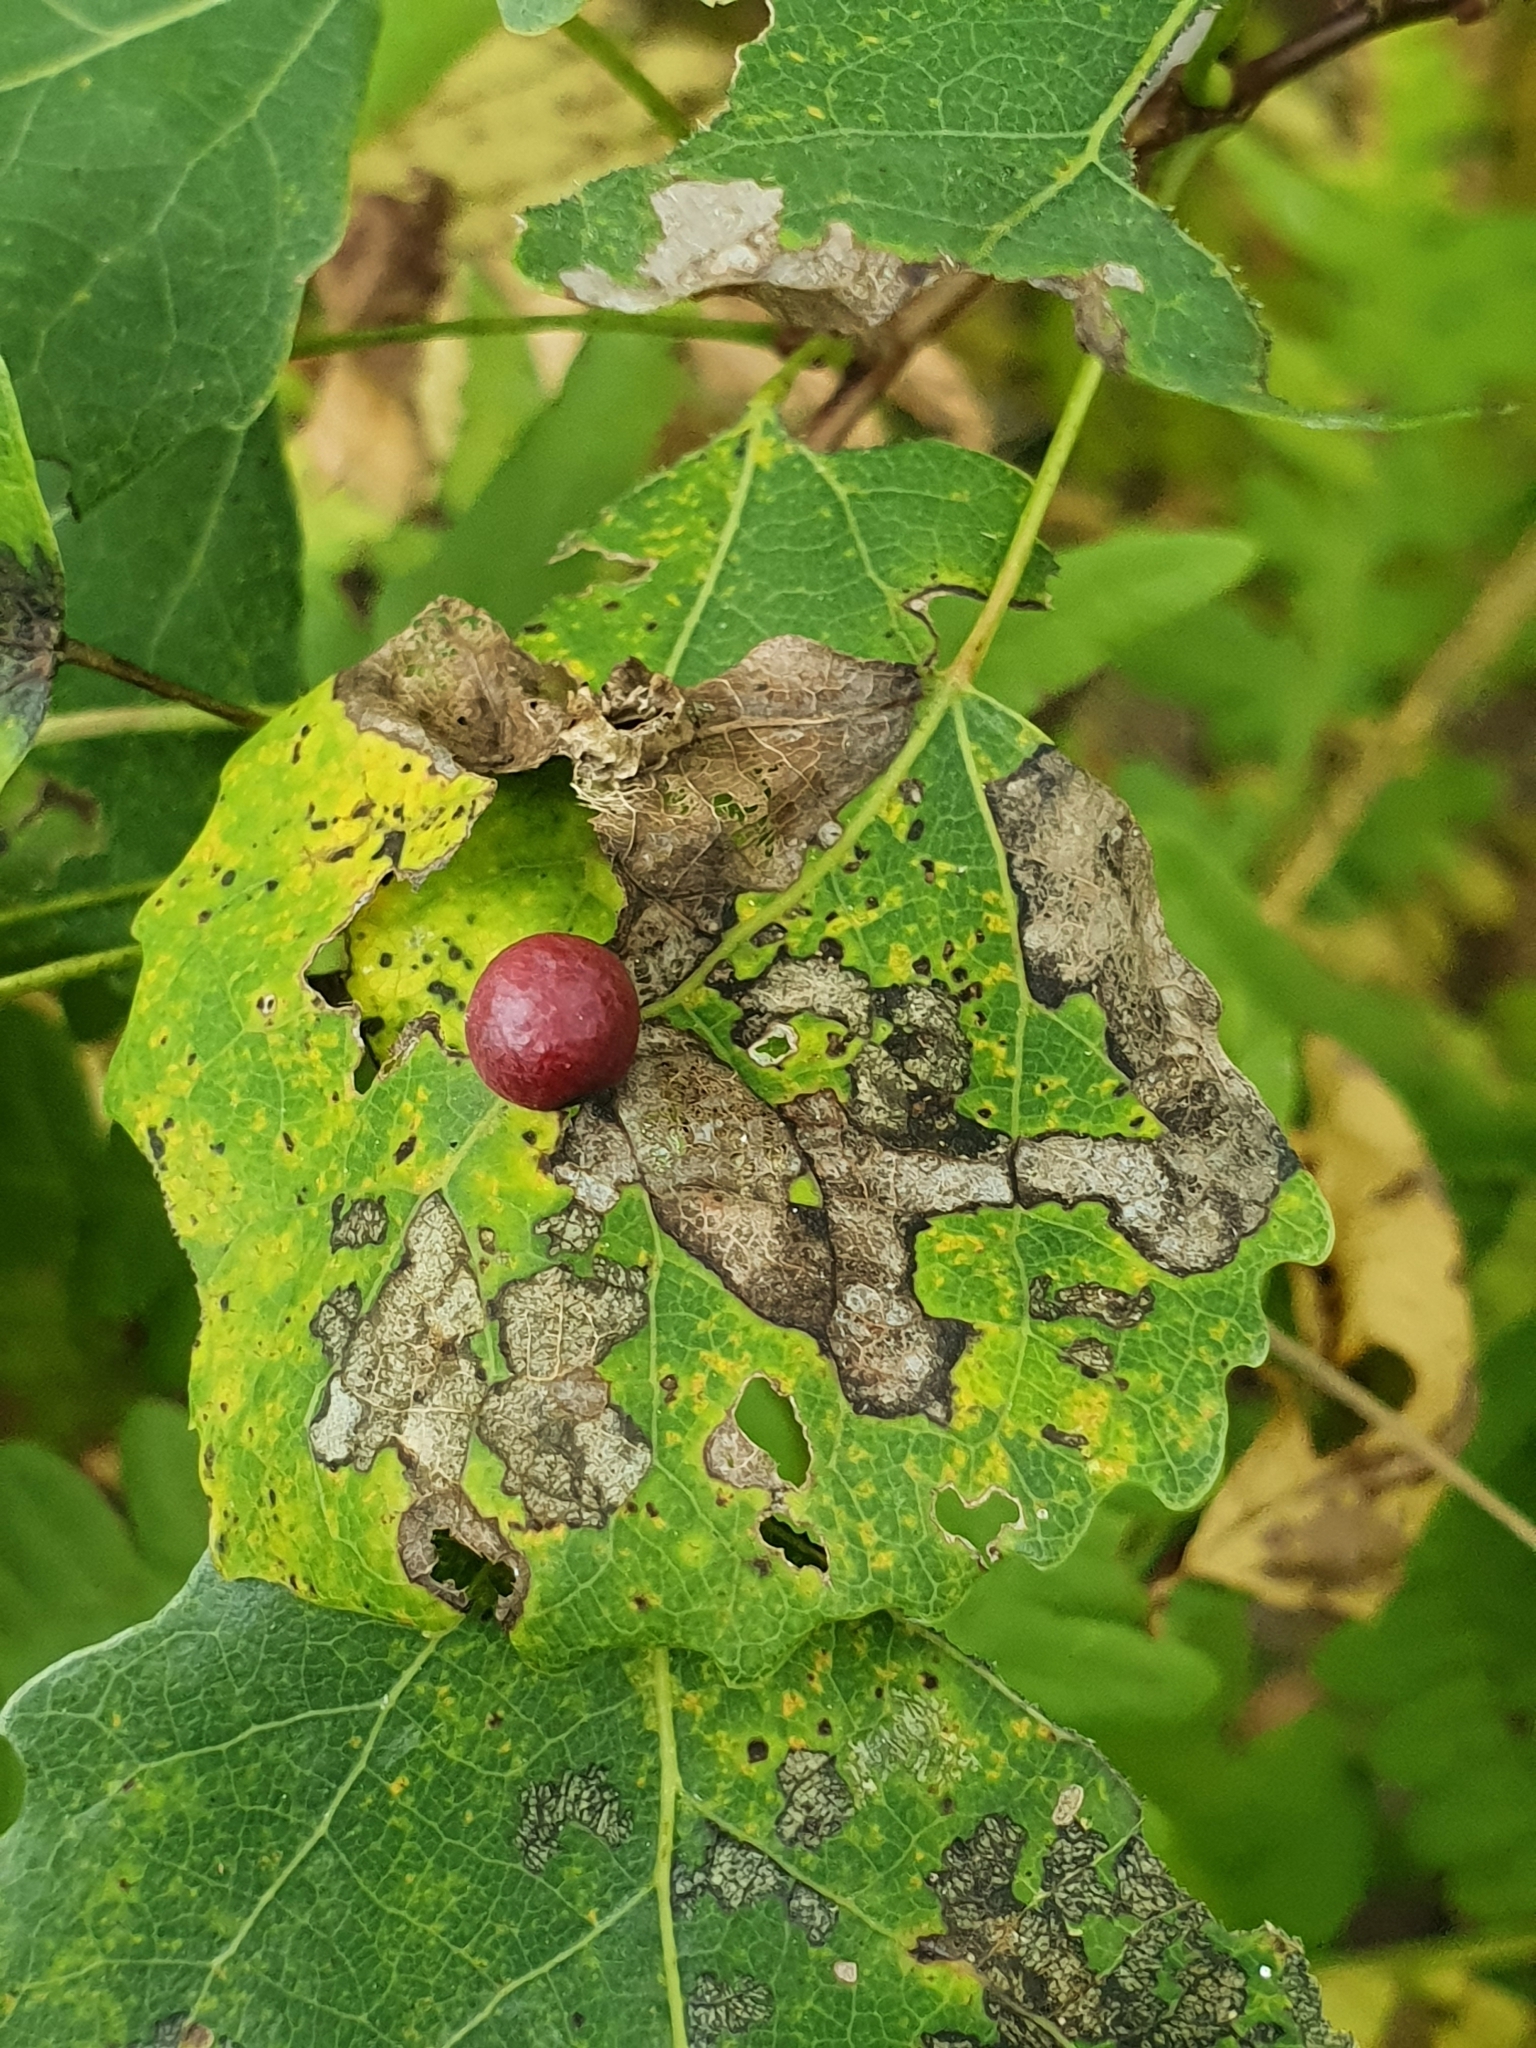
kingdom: Animalia
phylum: Arthropoda
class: Insecta
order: Diptera
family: Cecidomyiidae
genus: Harmandiola
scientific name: Harmandiola tremulae
